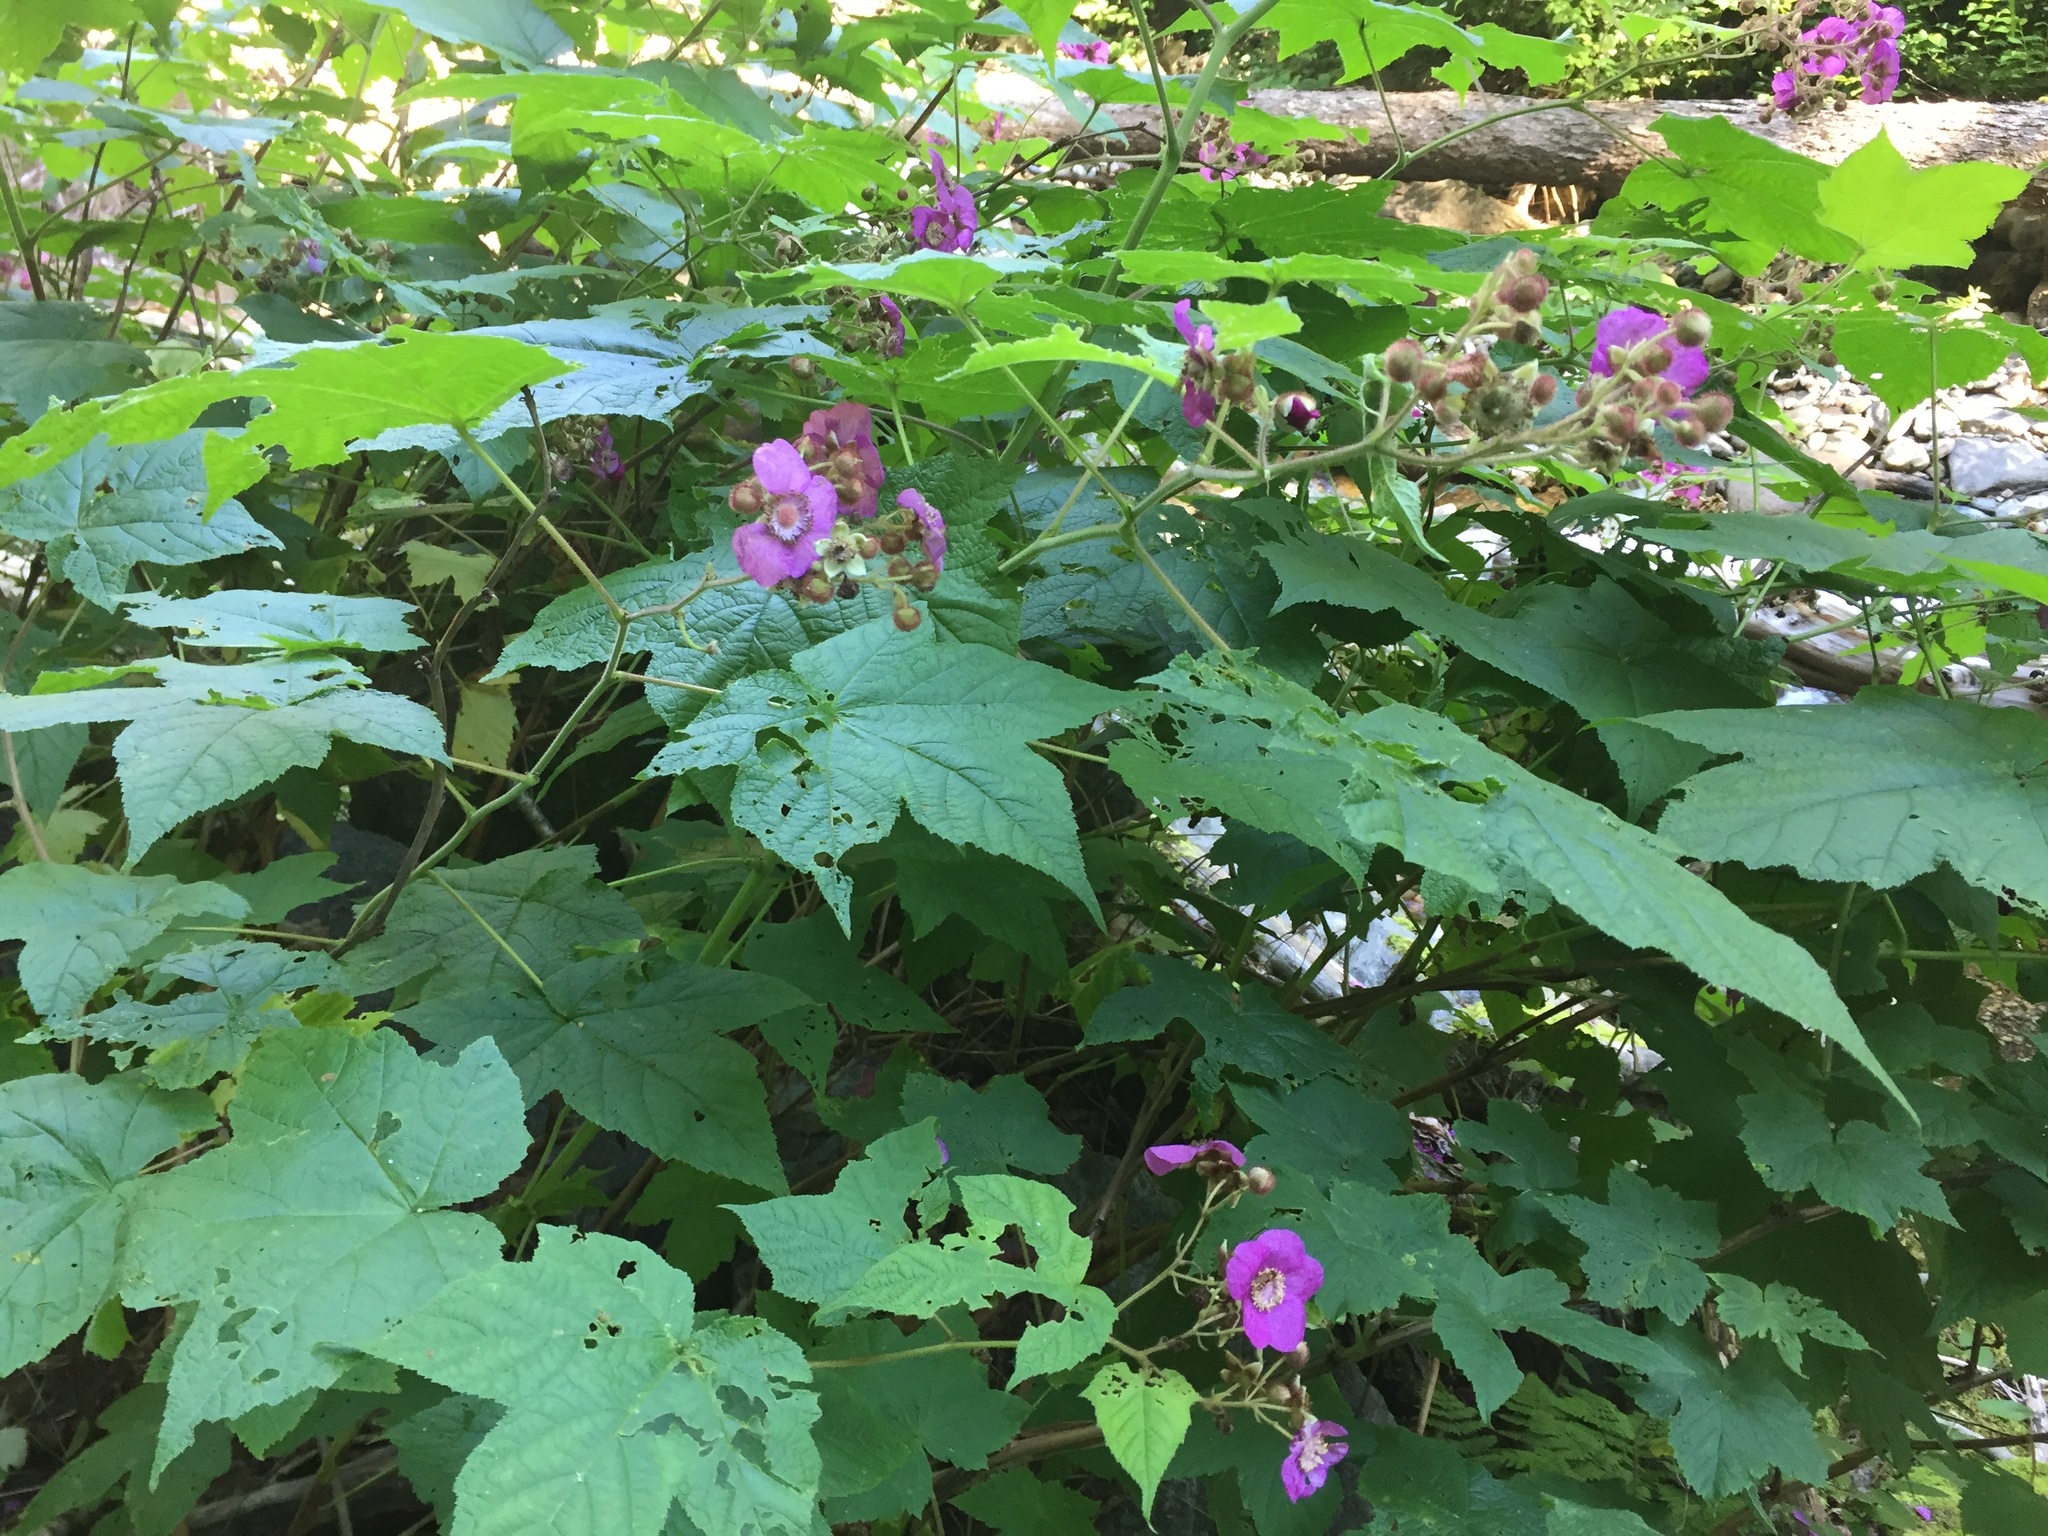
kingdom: Plantae
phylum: Tracheophyta
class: Magnoliopsida
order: Rosales
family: Rosaceae
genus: Rubus
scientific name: Rubus odoratus
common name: Purple-flowered raspberry
